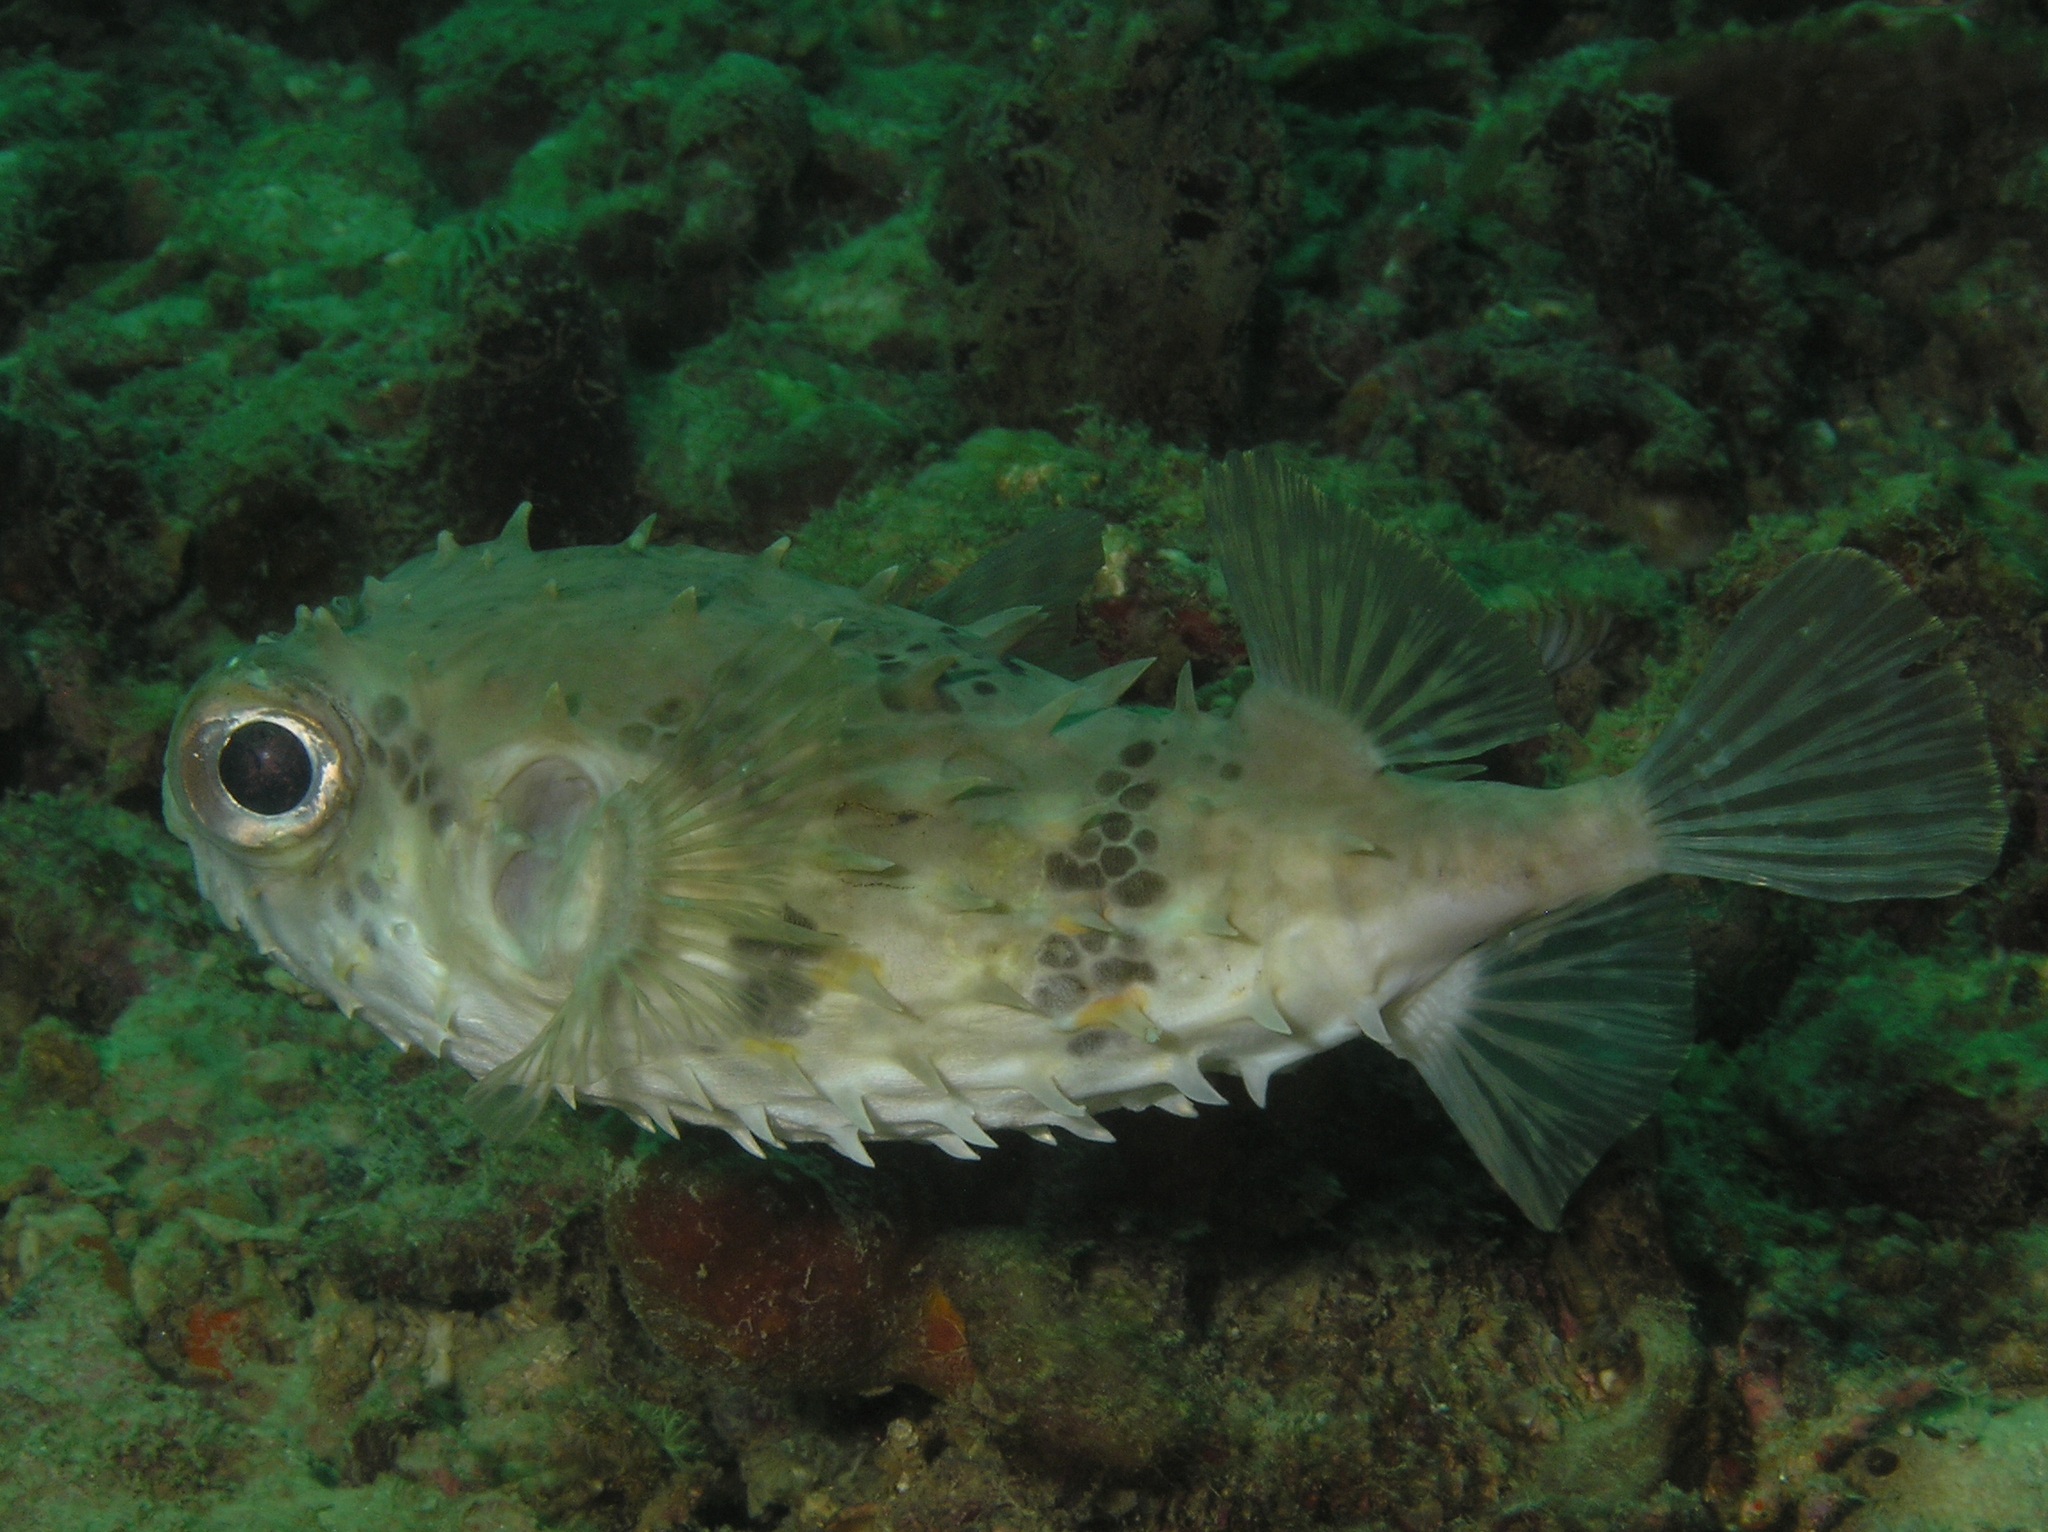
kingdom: Animalia
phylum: Chordata
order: Tetraodontiformes
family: Diodontidae
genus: Cyclichthys
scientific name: Cyclichthys orbicularis
